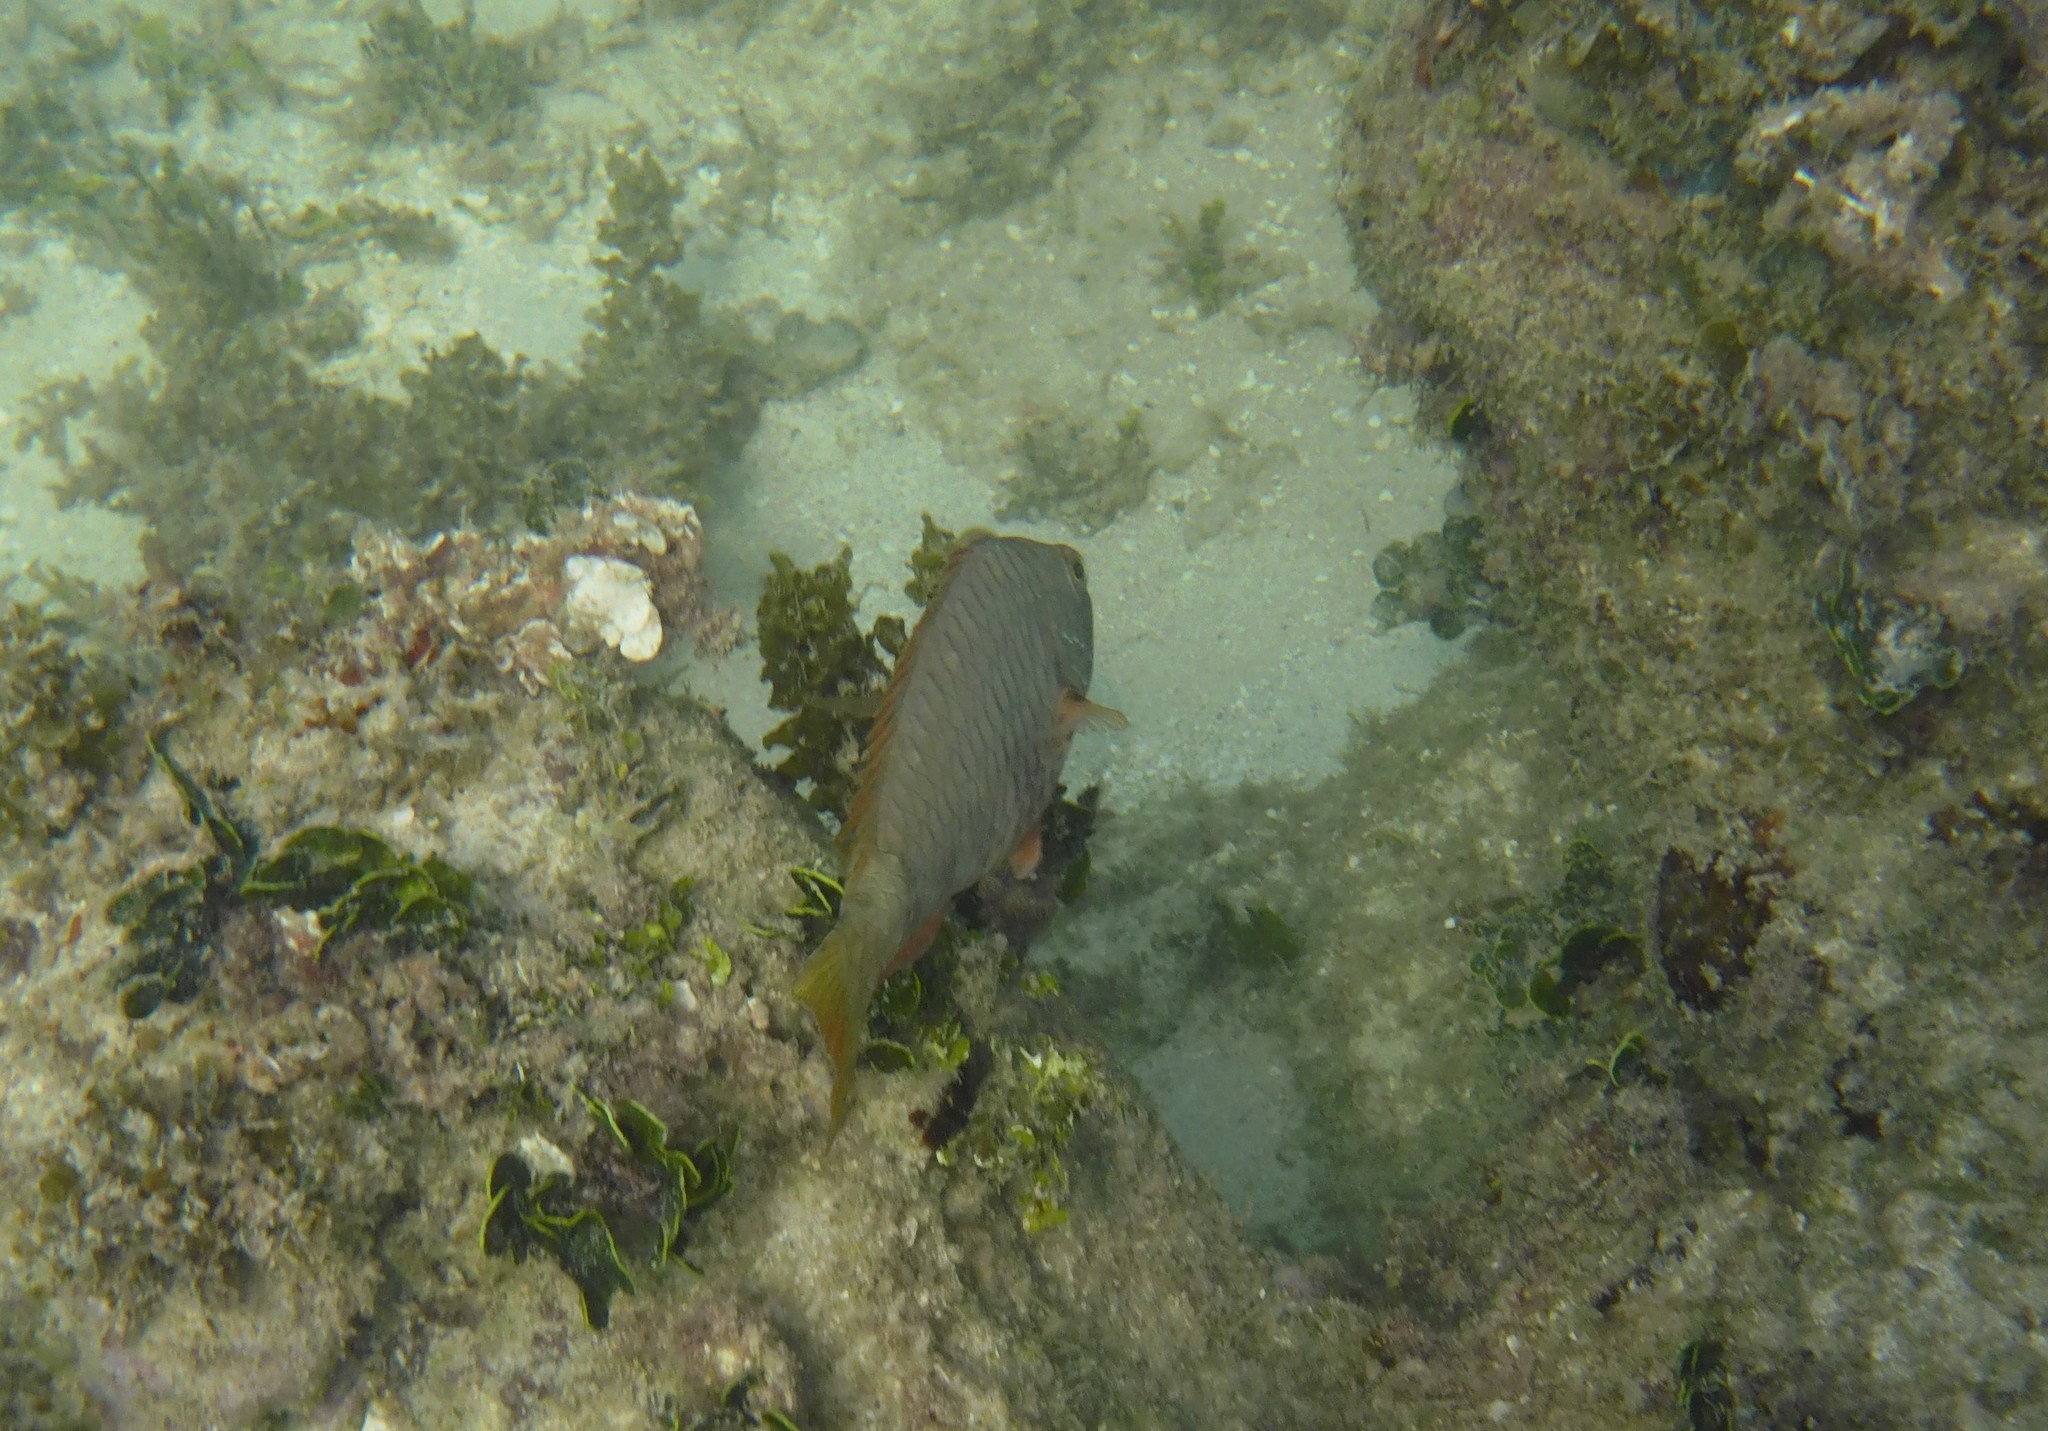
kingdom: Animalia
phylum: Chordata
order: Perciformes
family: Scaridae
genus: Sparisoma
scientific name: Sparisoma rubripinne
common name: Redfin parrotfish
